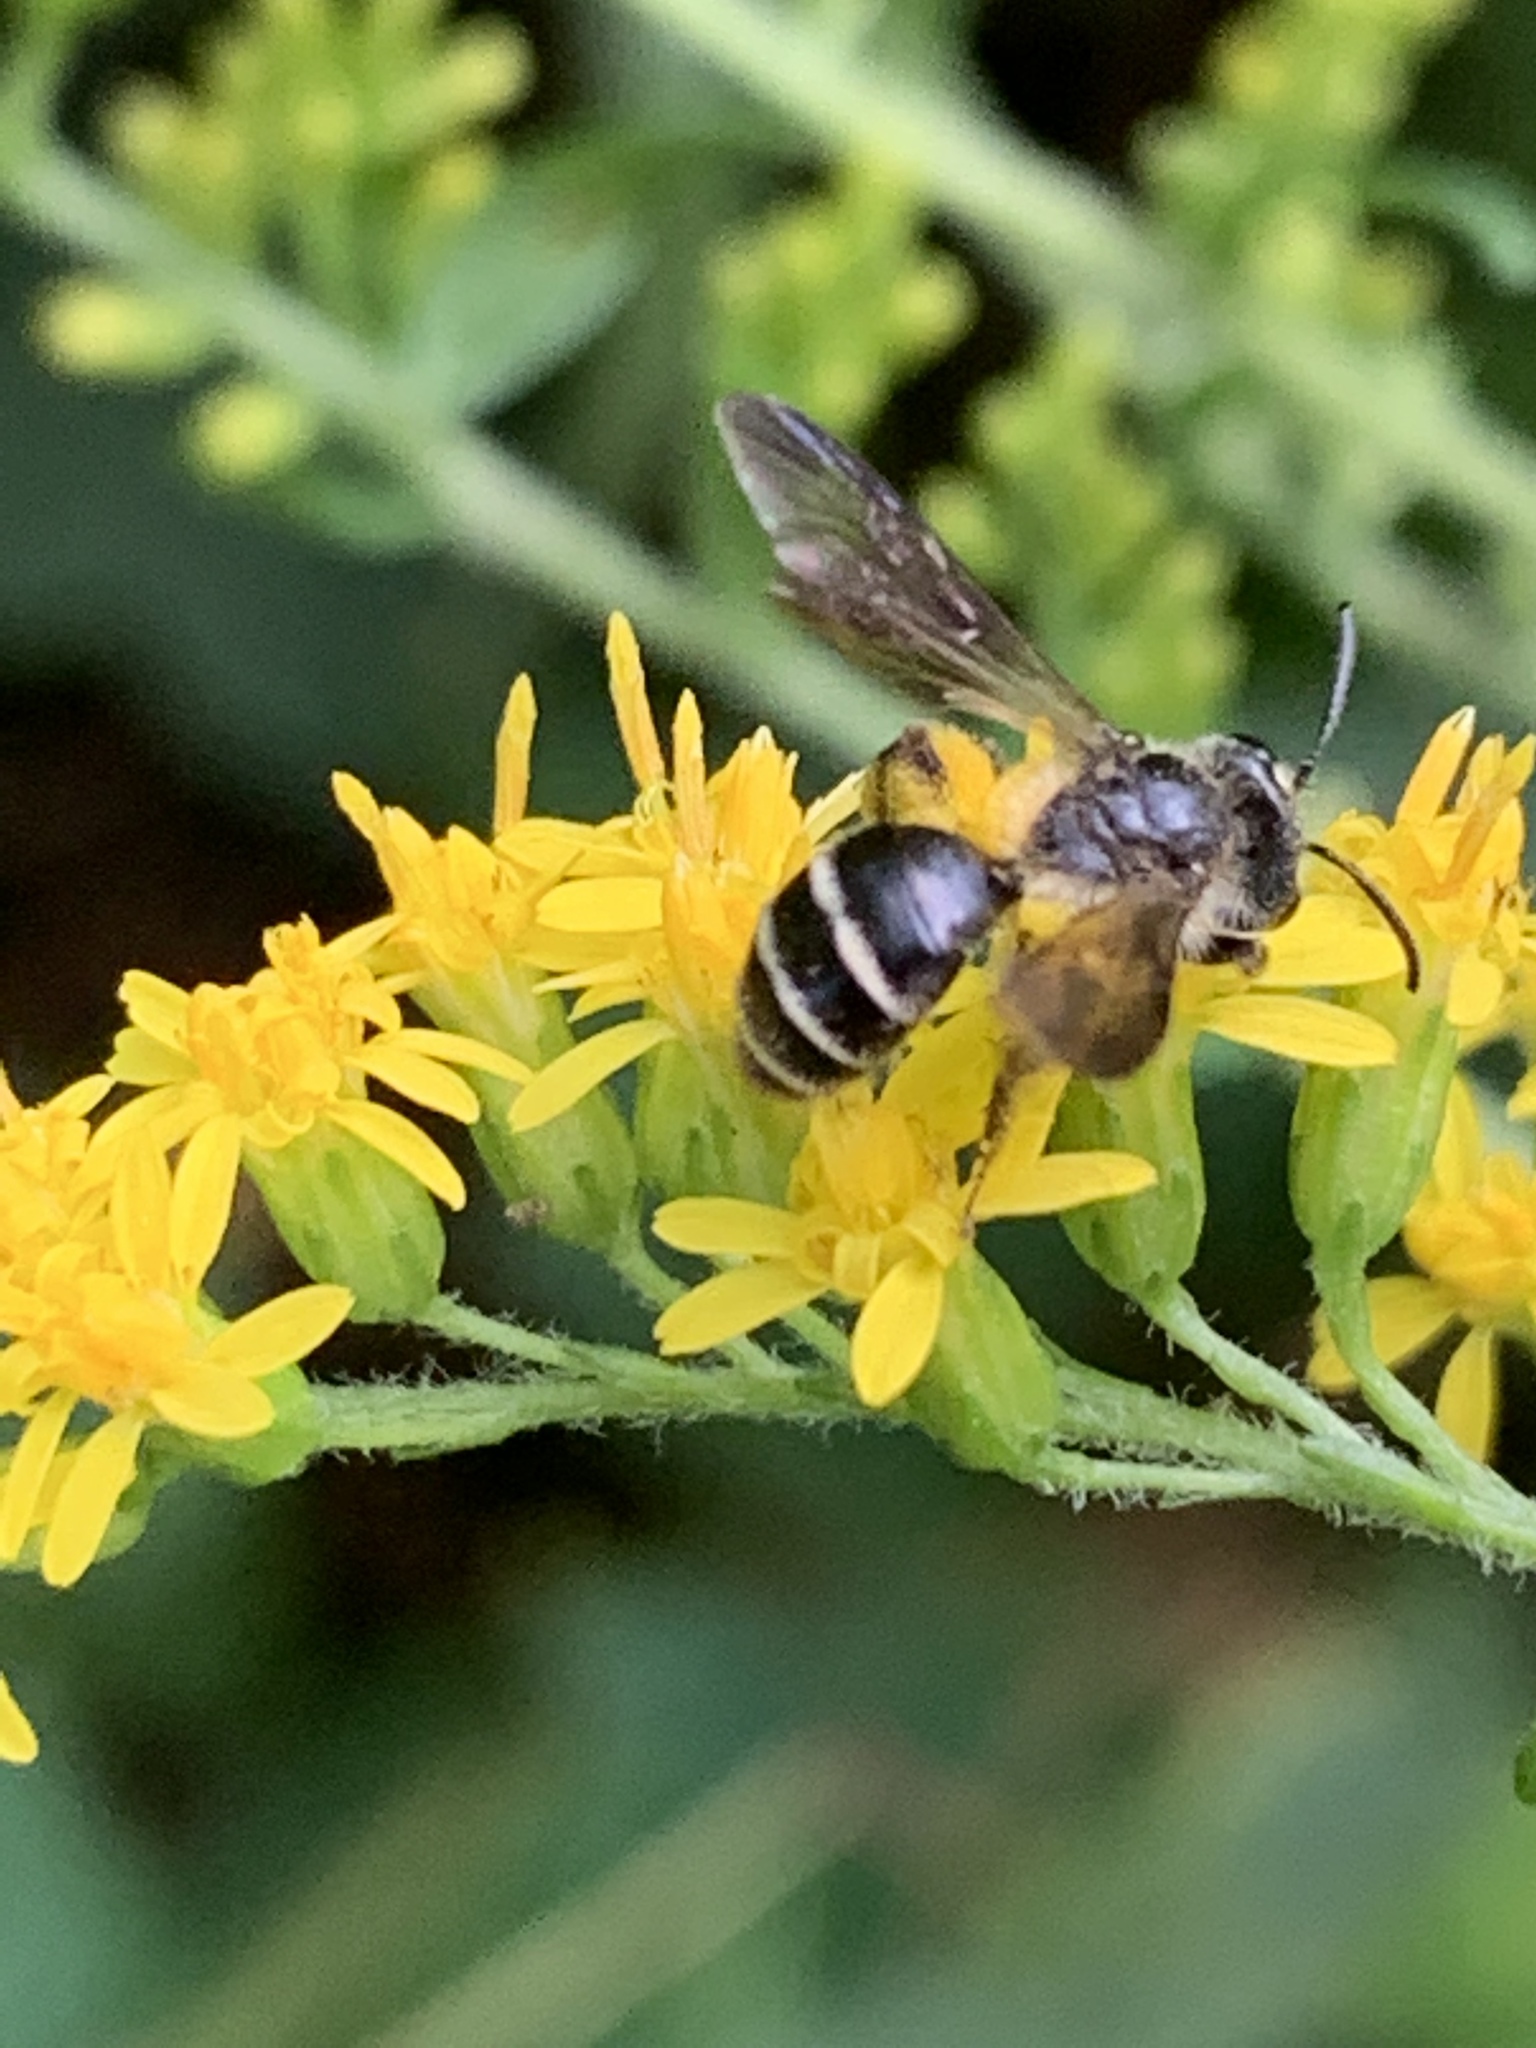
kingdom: Animalia
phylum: Arthropoda
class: Insecta
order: Hymenoptera
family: Andrenidae
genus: Andrena
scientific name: Andrena nubecula
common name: Cloudy-winged mining bee
